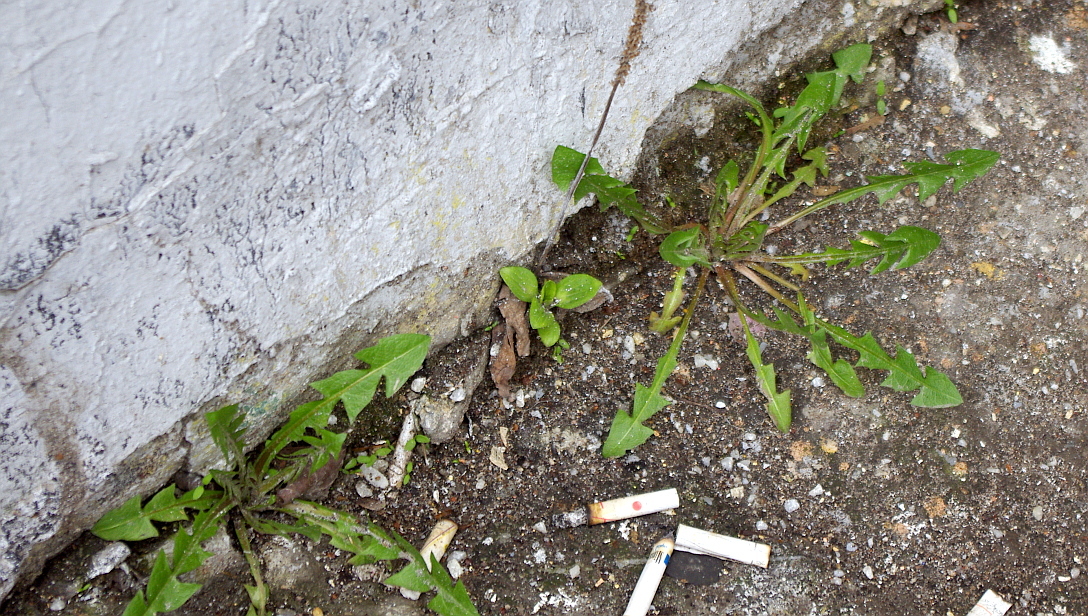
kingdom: Plantae
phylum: Tracheophyta
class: Magnoliopsida
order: Asterales
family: Asteraceae
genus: Taraxacum
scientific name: Taraxacum officinale
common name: Common dandelion
